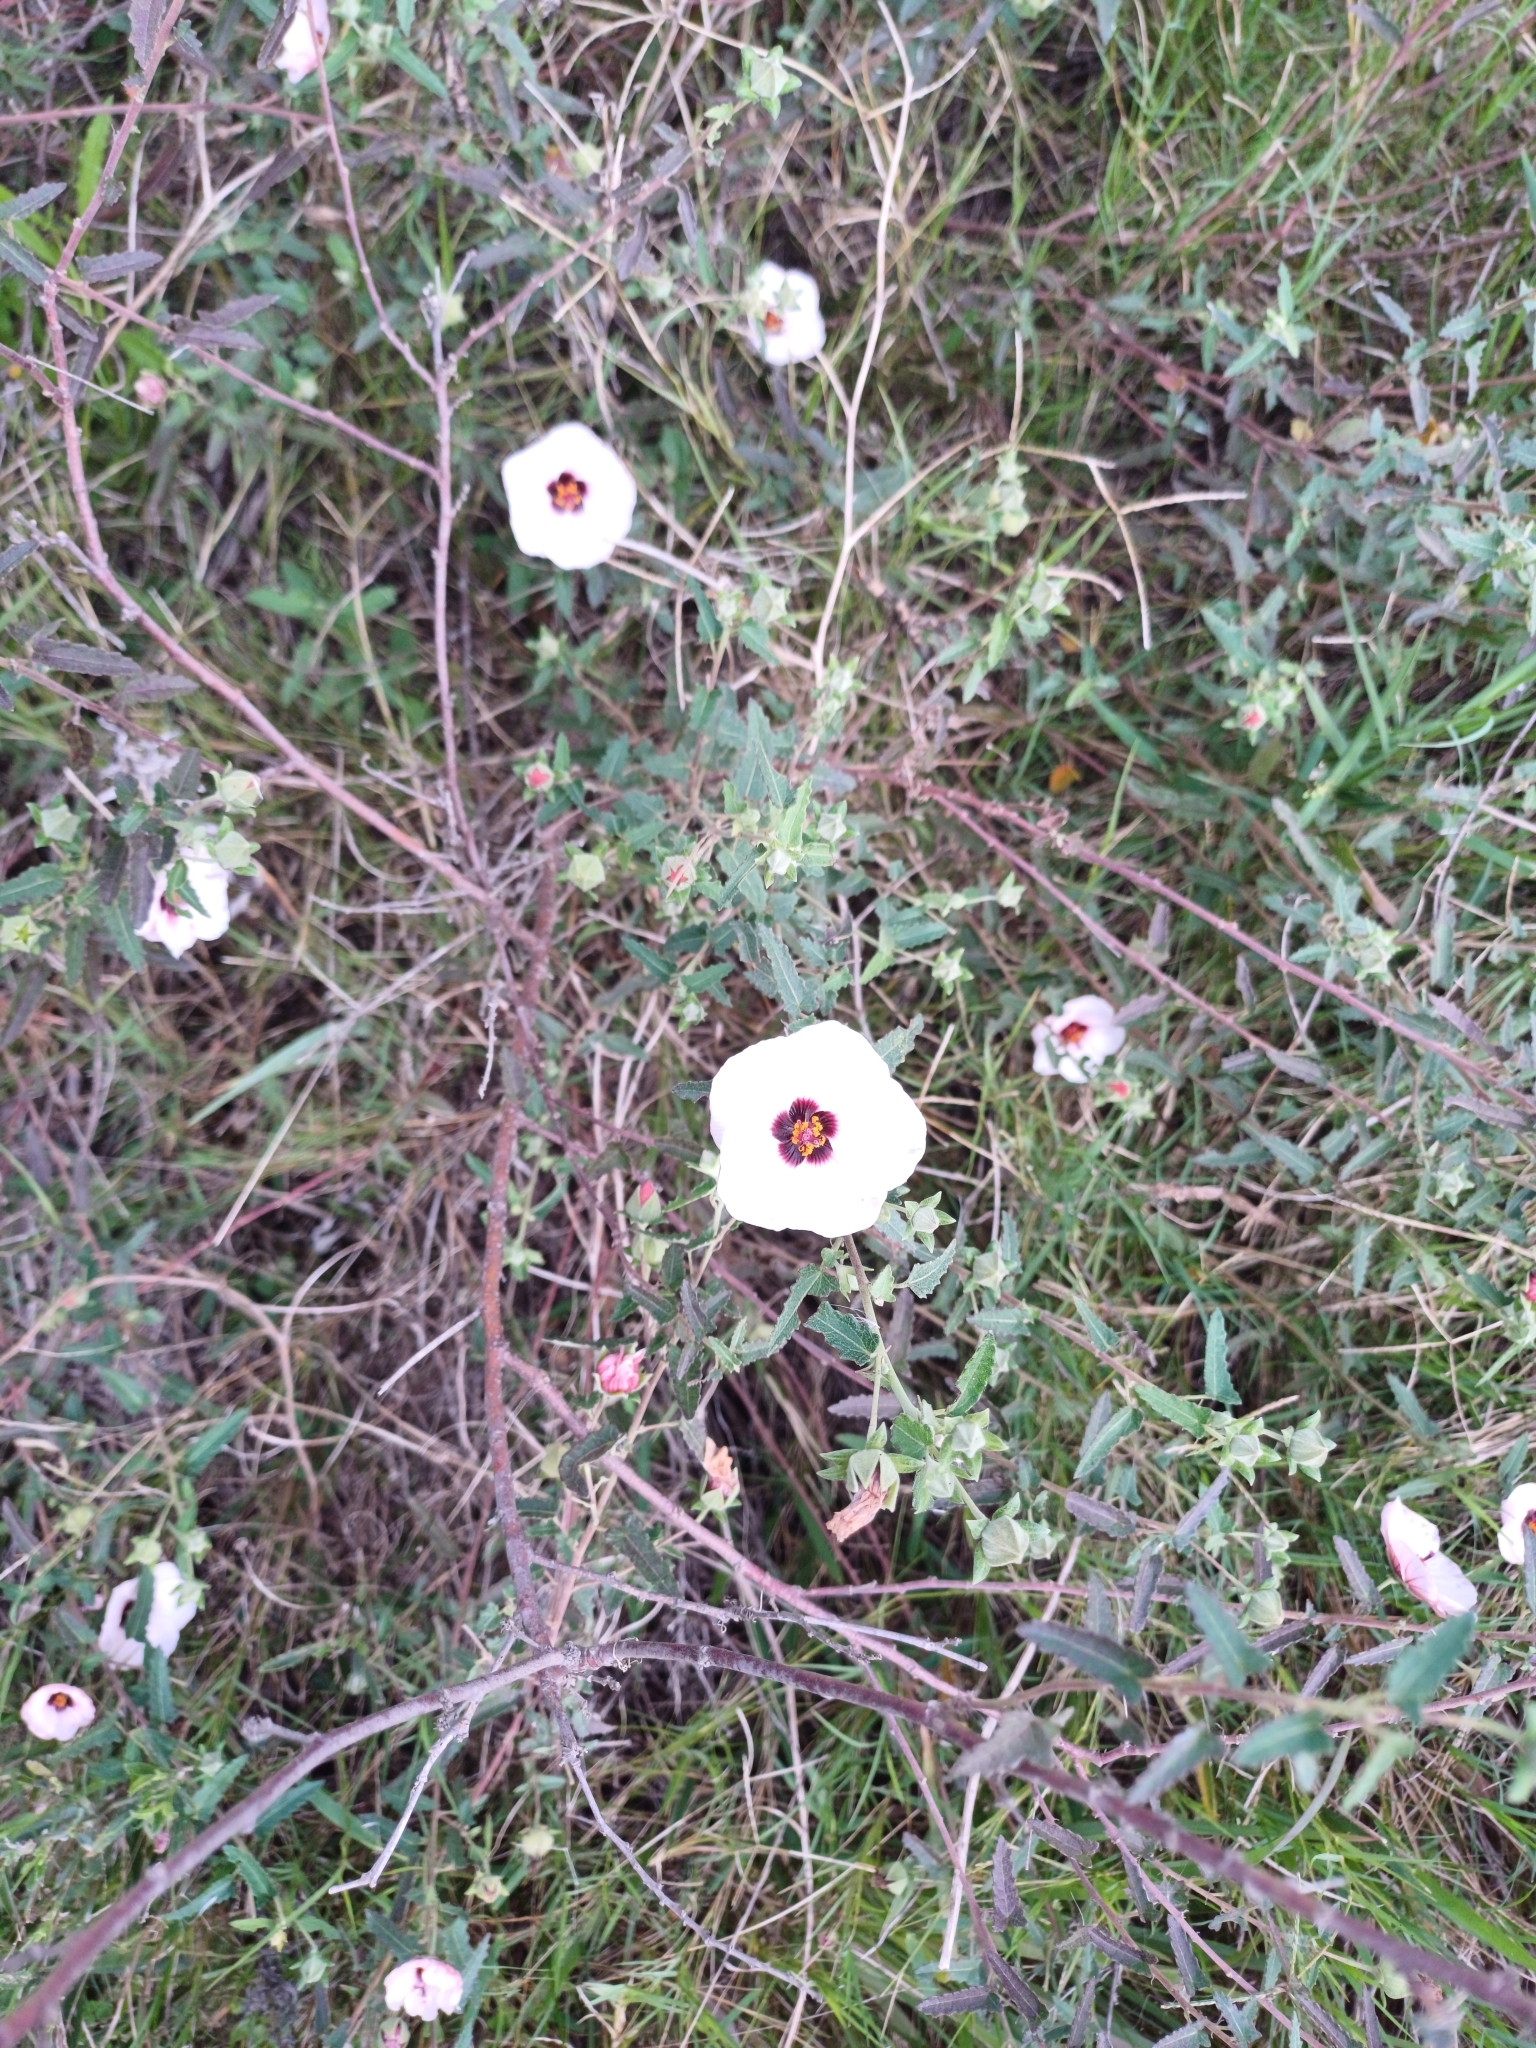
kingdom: Plantae
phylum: Tracheophyta
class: Magnoliopsida
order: Malvales
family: Malvaceae
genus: Pavonia
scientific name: Pavonia hastata
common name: Spearleaf swampmallow
